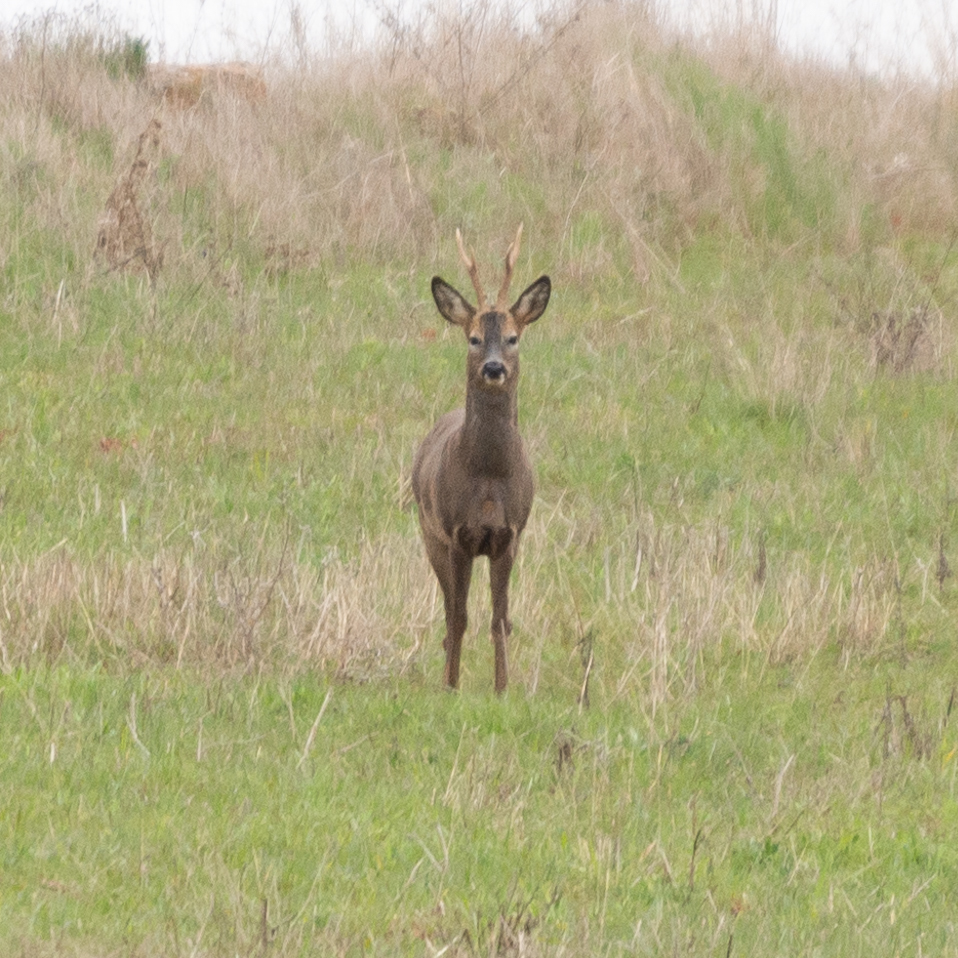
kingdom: Animalia
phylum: Chordata
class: Mammalia
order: Artiodactyla
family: Cervidae
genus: Capreolus
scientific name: Capreolus capreolus
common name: Western roe deer
